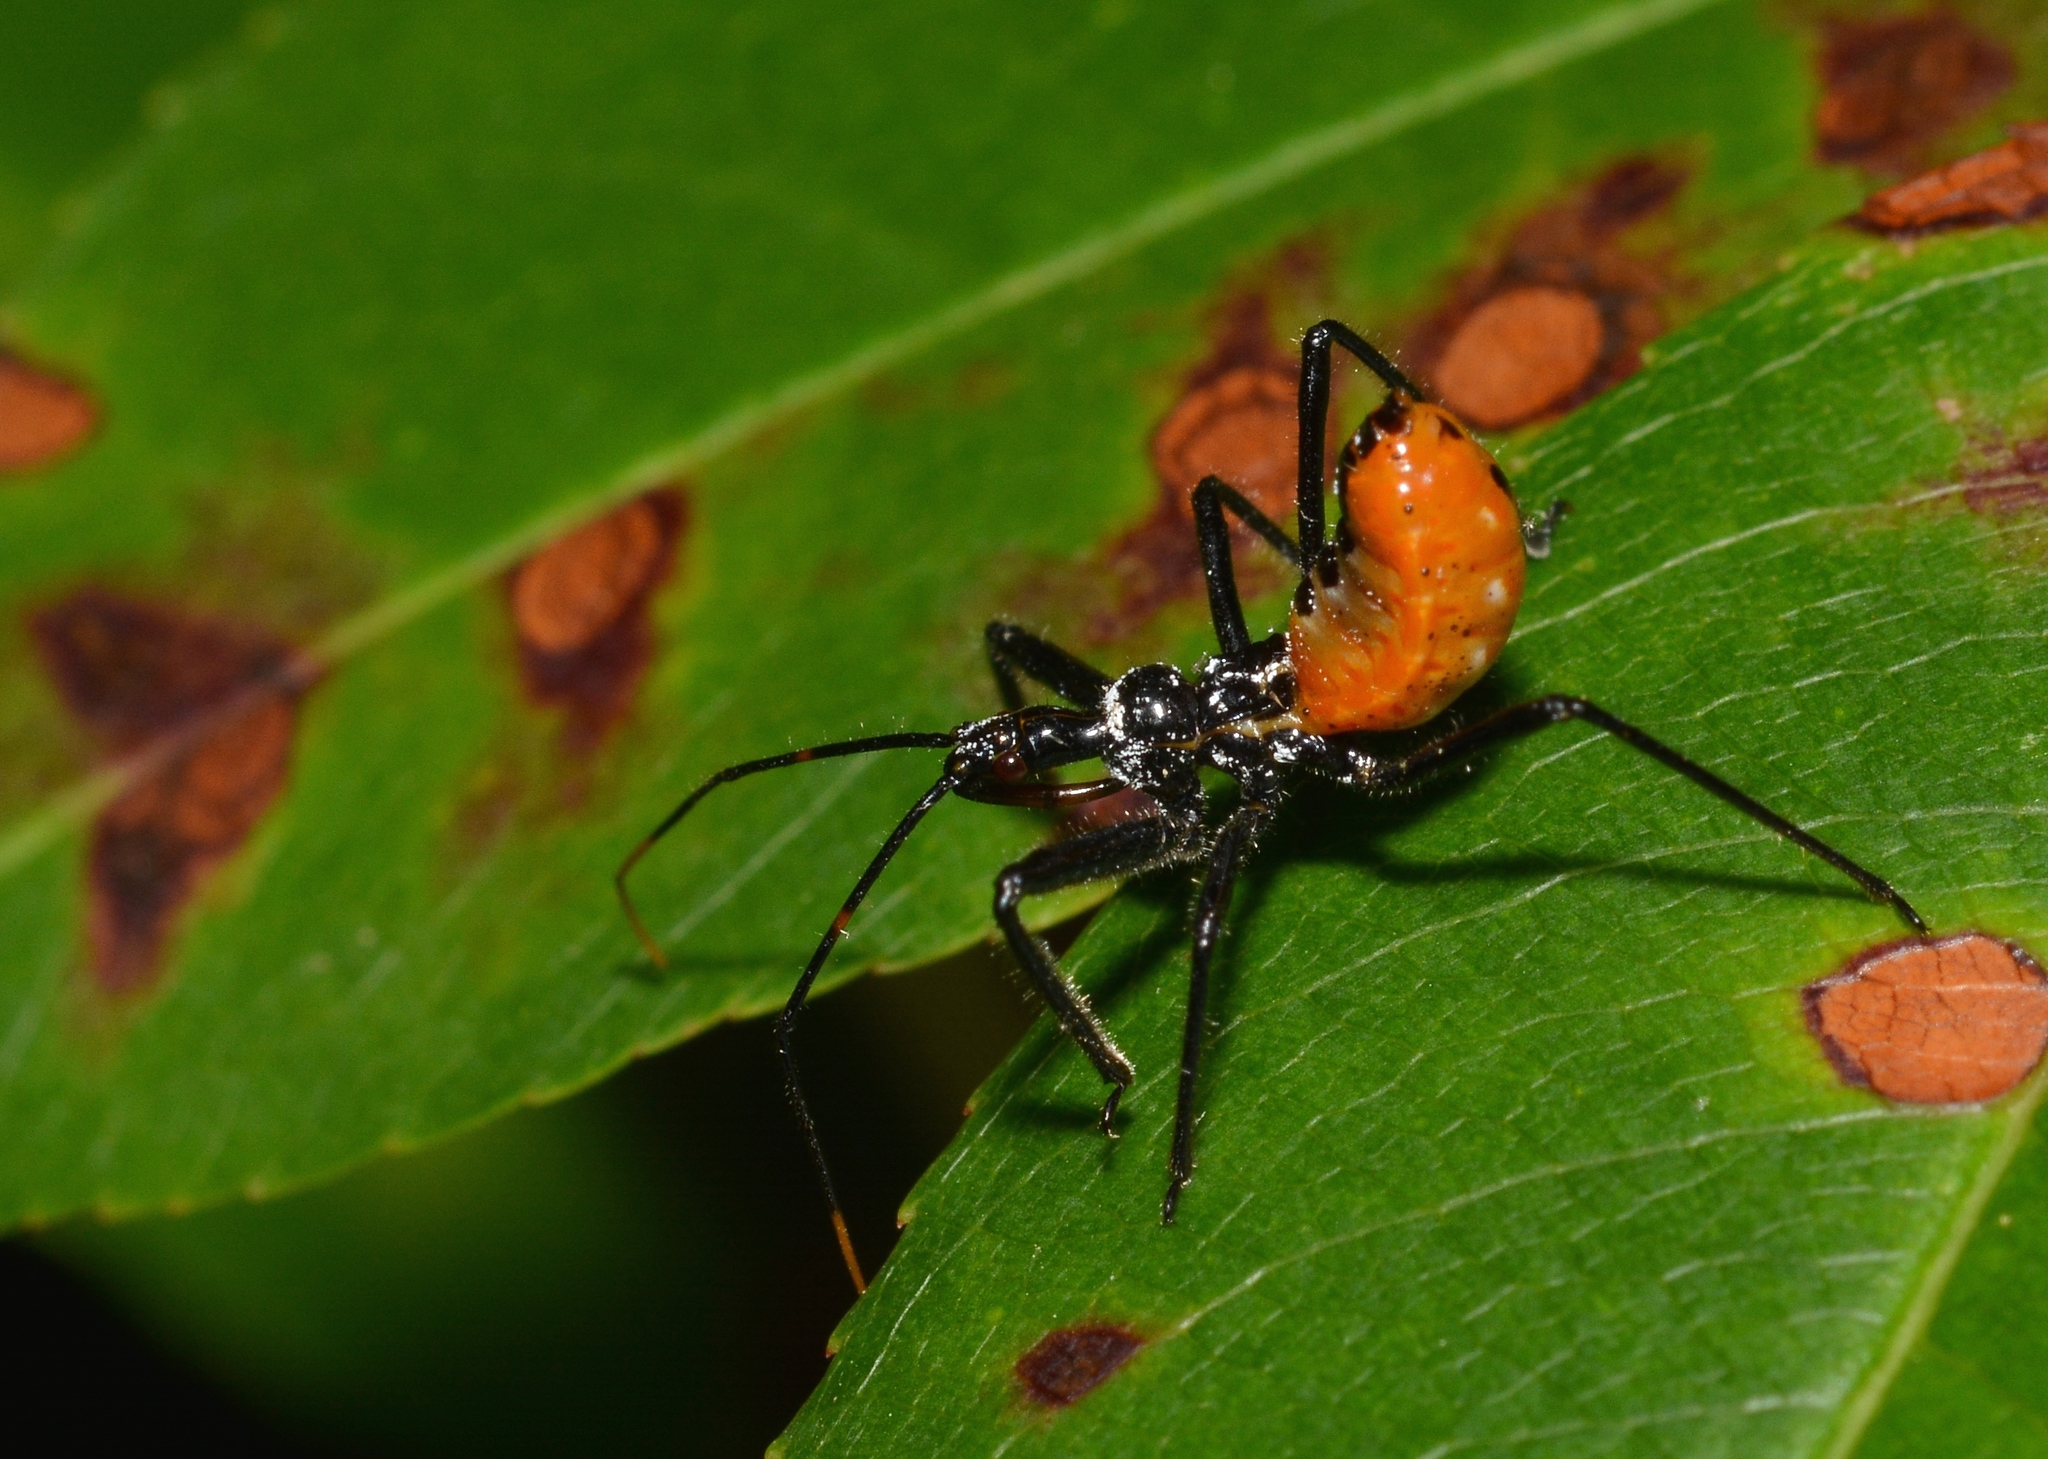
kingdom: Animalia
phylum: Arthropoda
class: Insecta
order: Hemiptera
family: Reduviidae
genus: Arilus
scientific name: Arilus cristatus
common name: North american wheel bug
